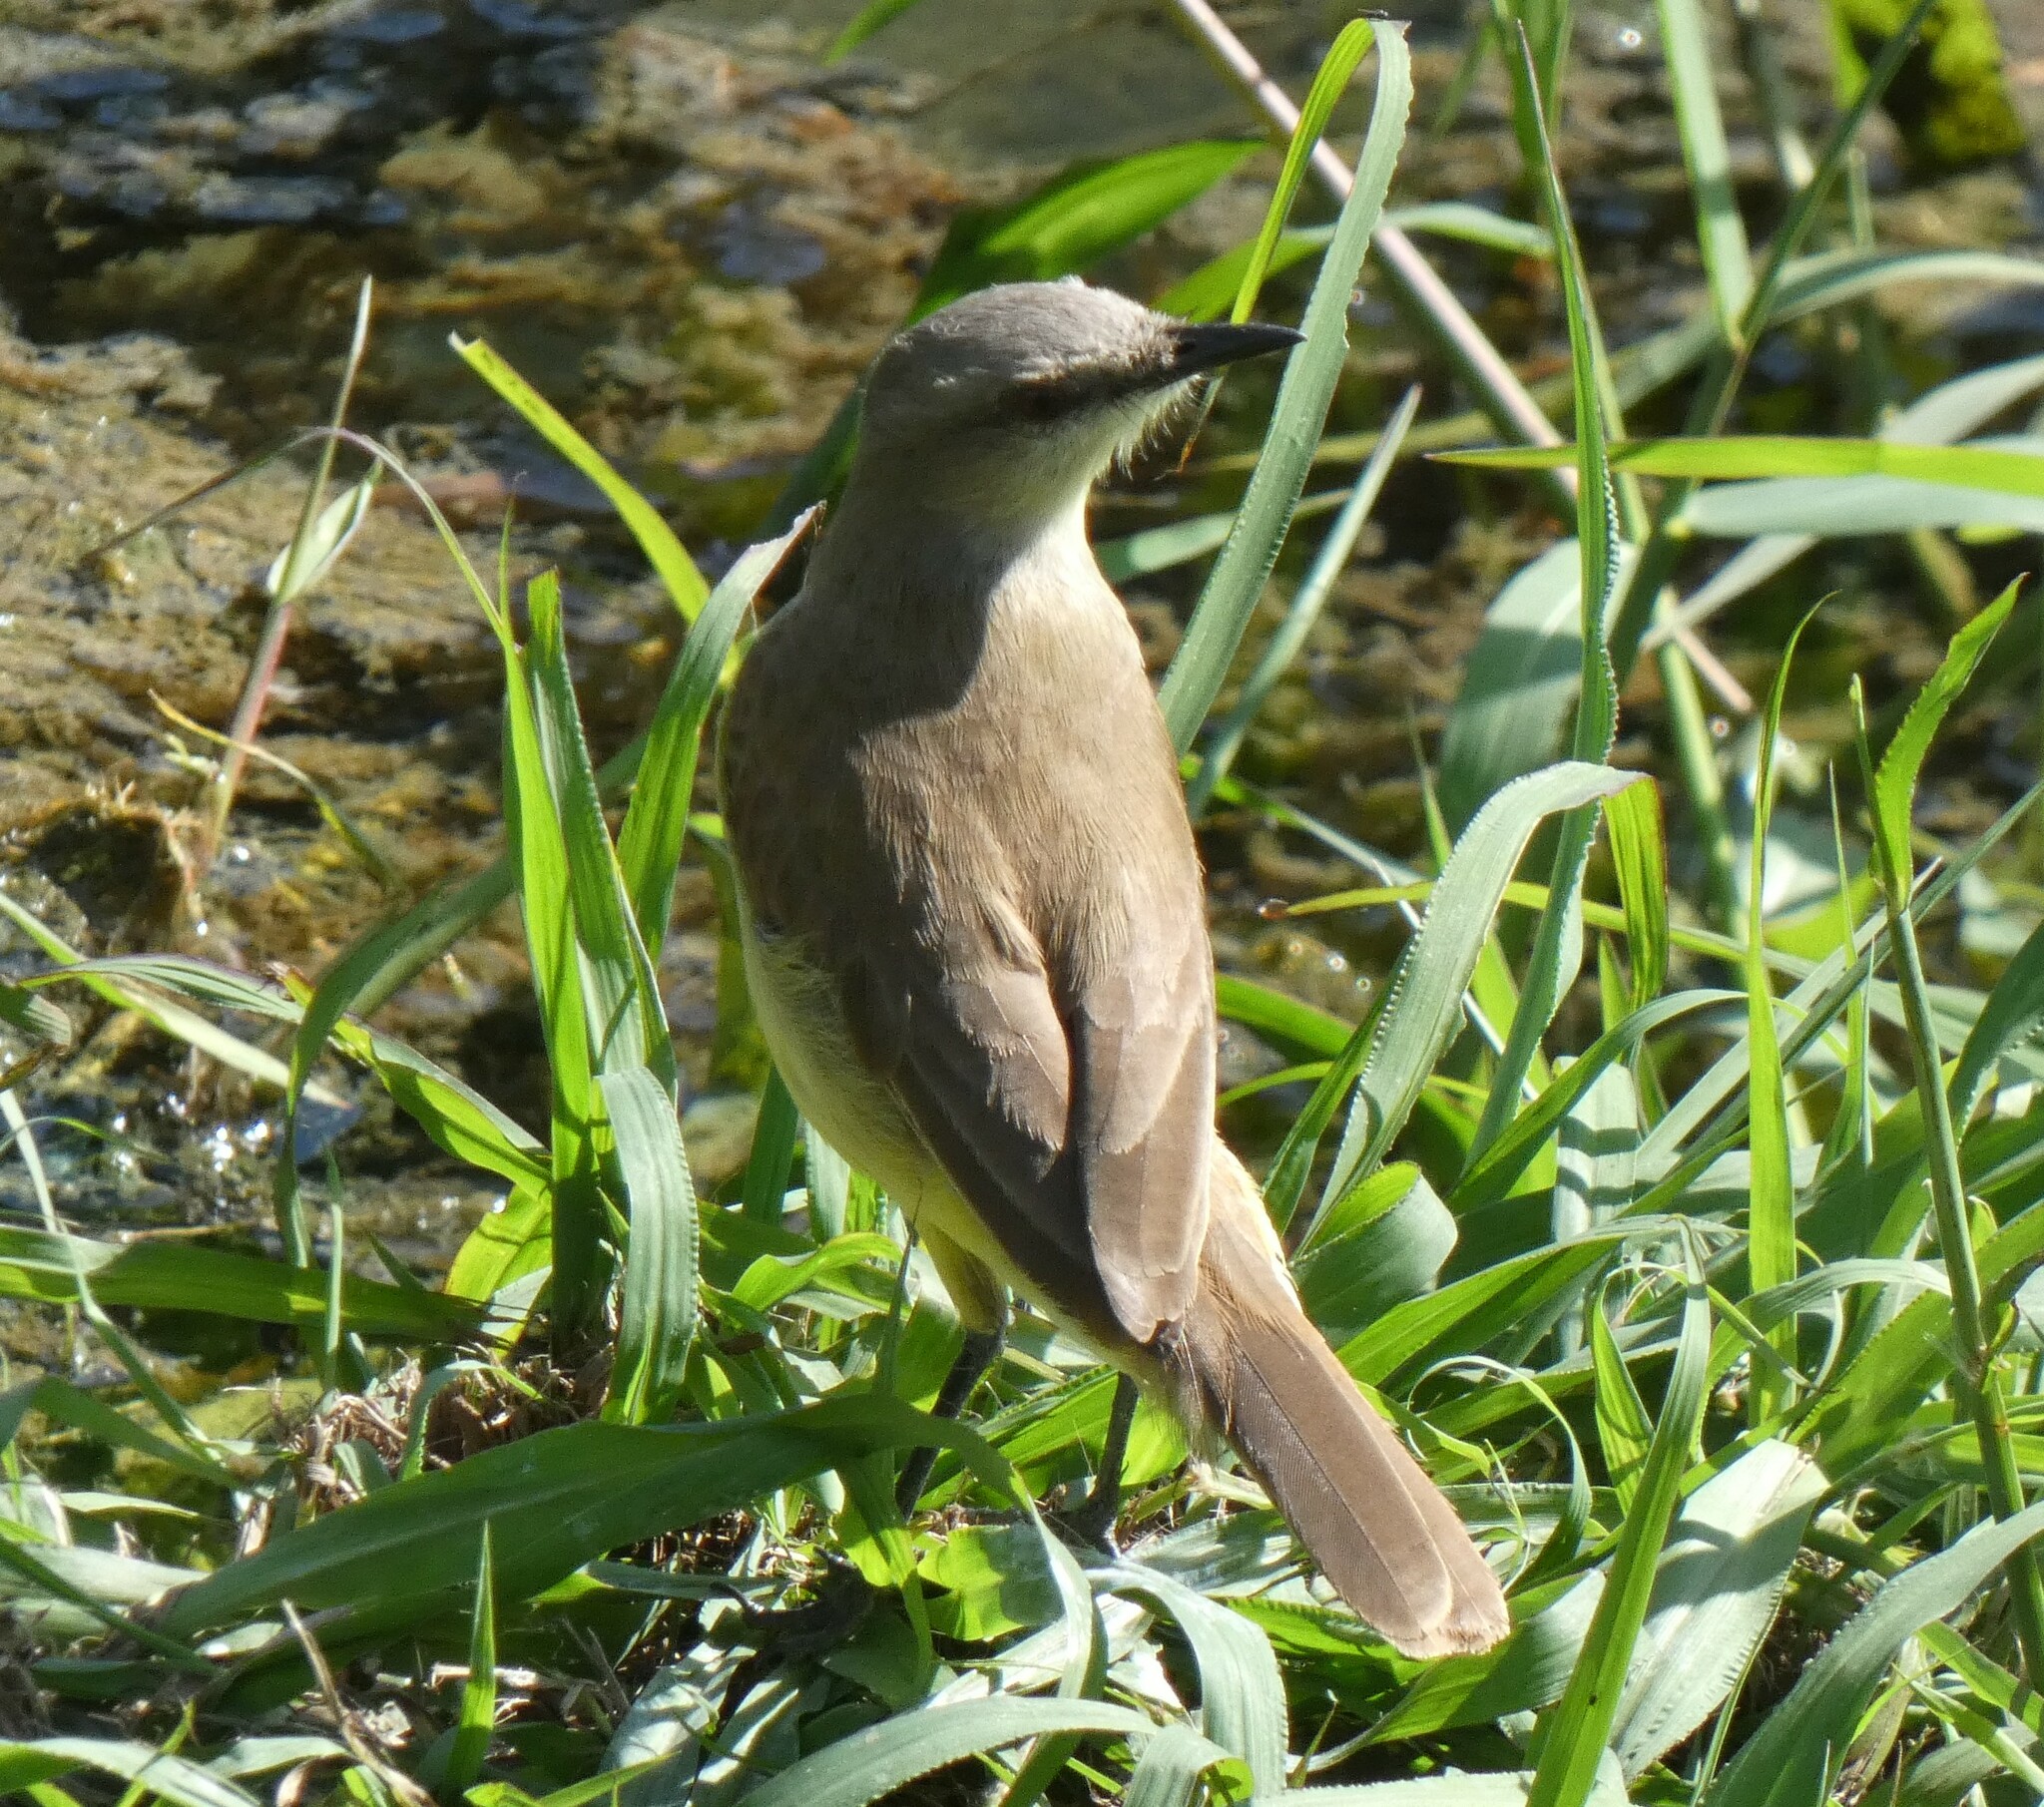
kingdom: Animalia
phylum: Chordata
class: Aves
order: Passeriformes
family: Tyrannidae
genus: Machetornis
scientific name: Machetornis rixosa
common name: Cattle tyrant
